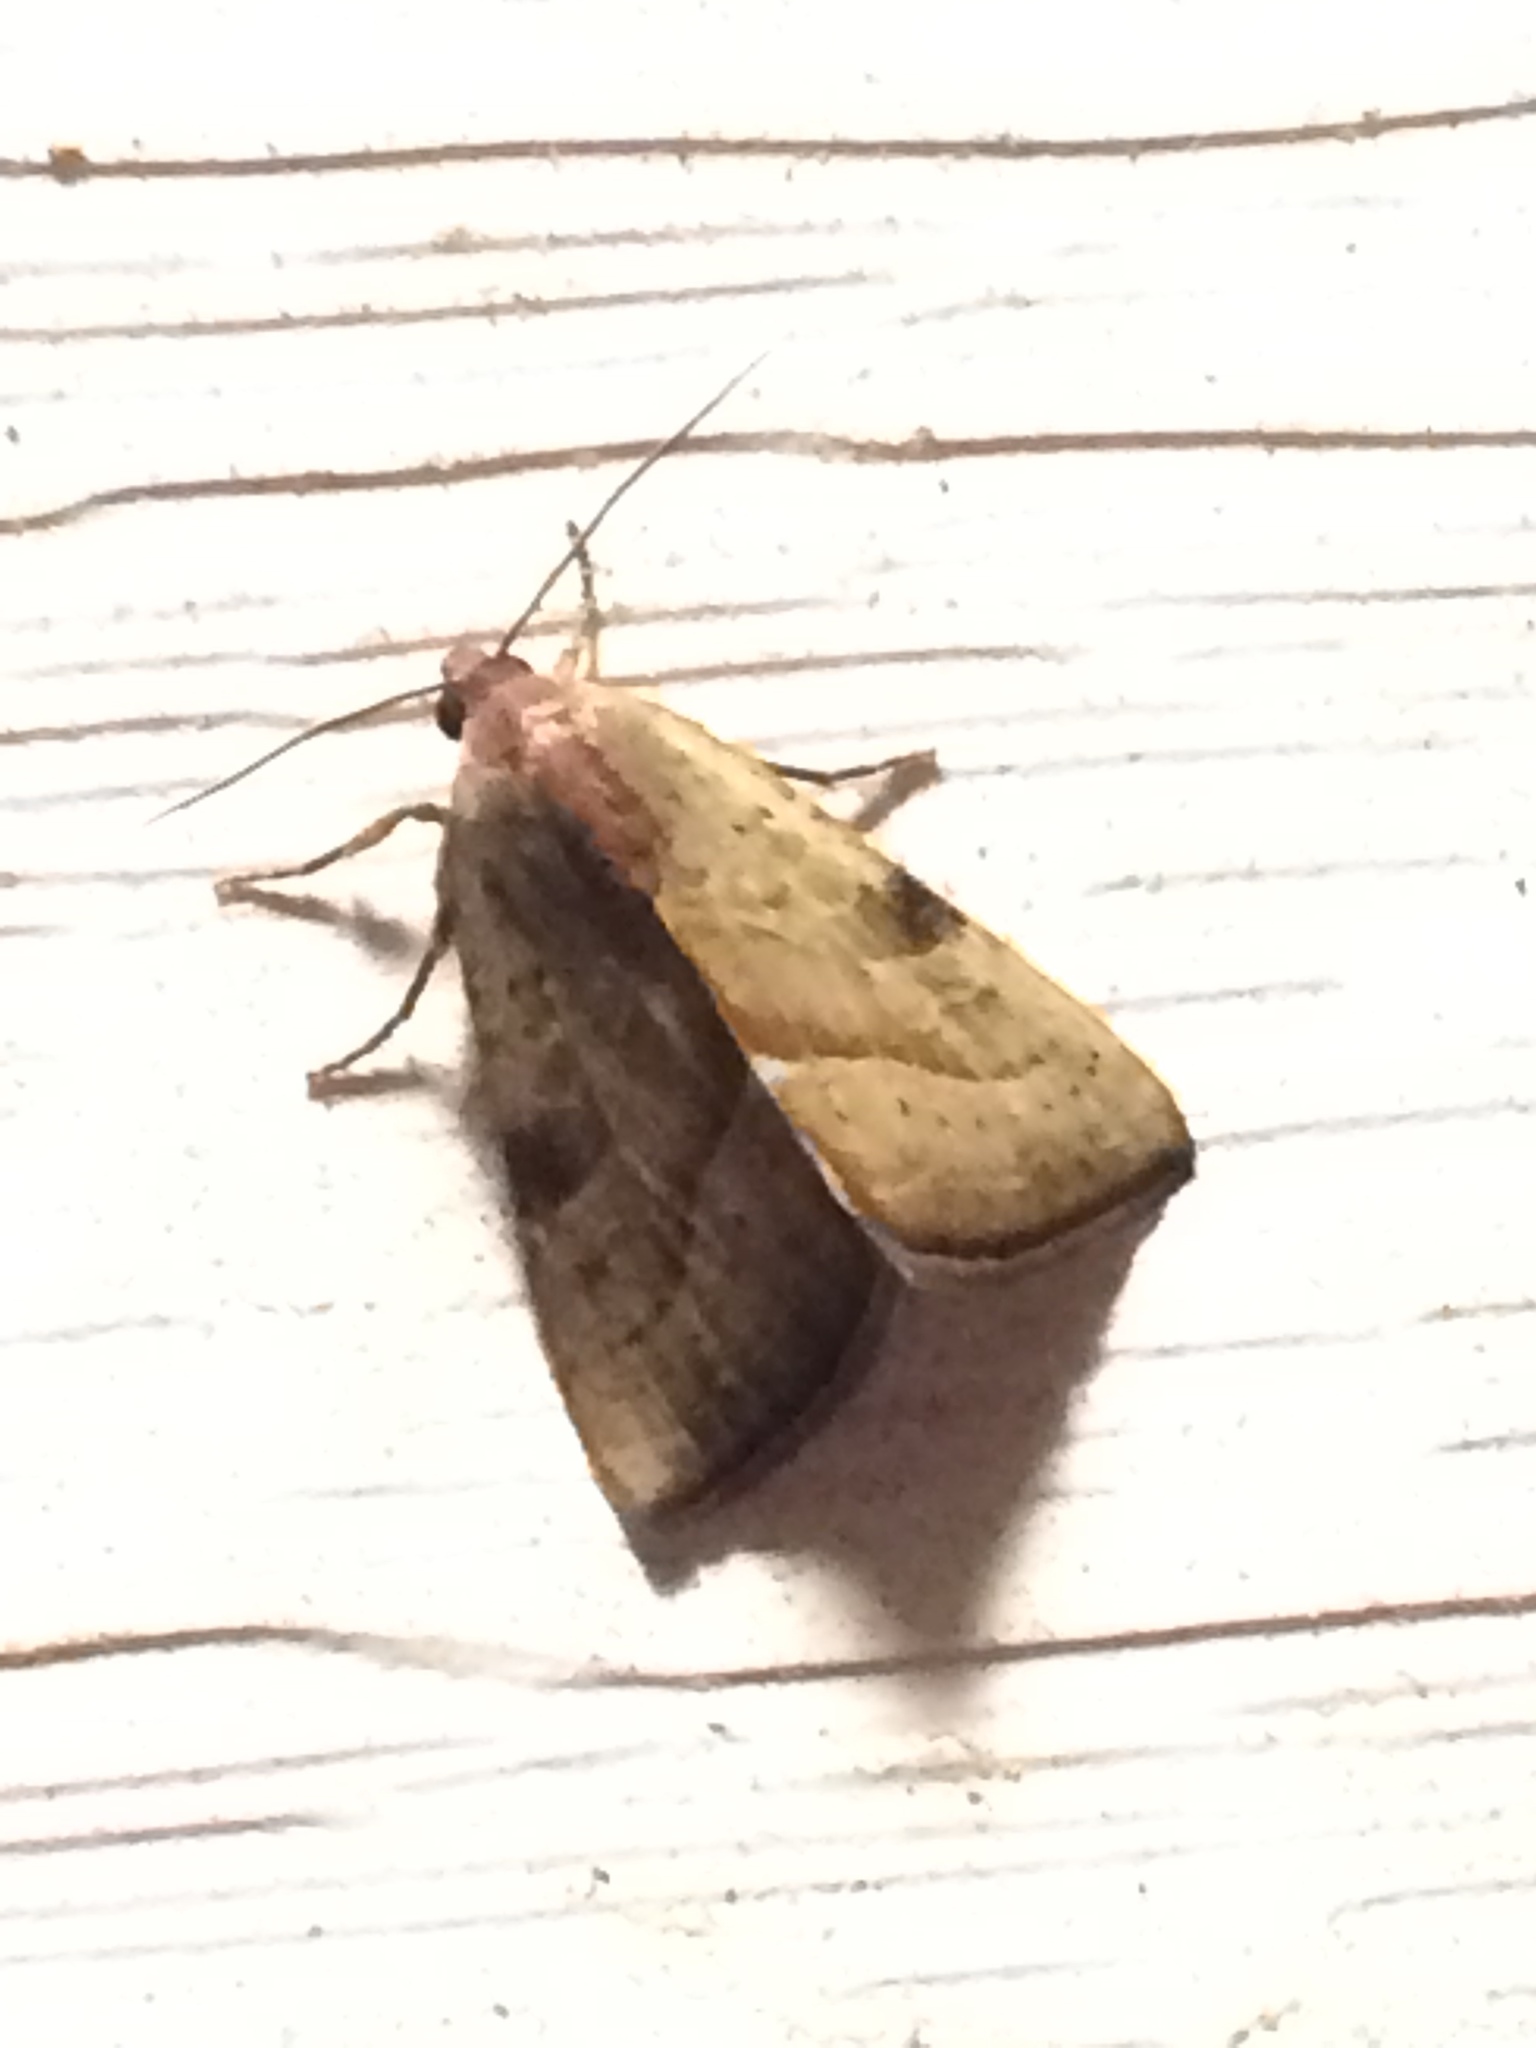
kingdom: Animalia
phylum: Arthropoda
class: Insecta
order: Lepidoptera
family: Noctuidae
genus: Galgula
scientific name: Galgula partita
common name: Wedgeling
